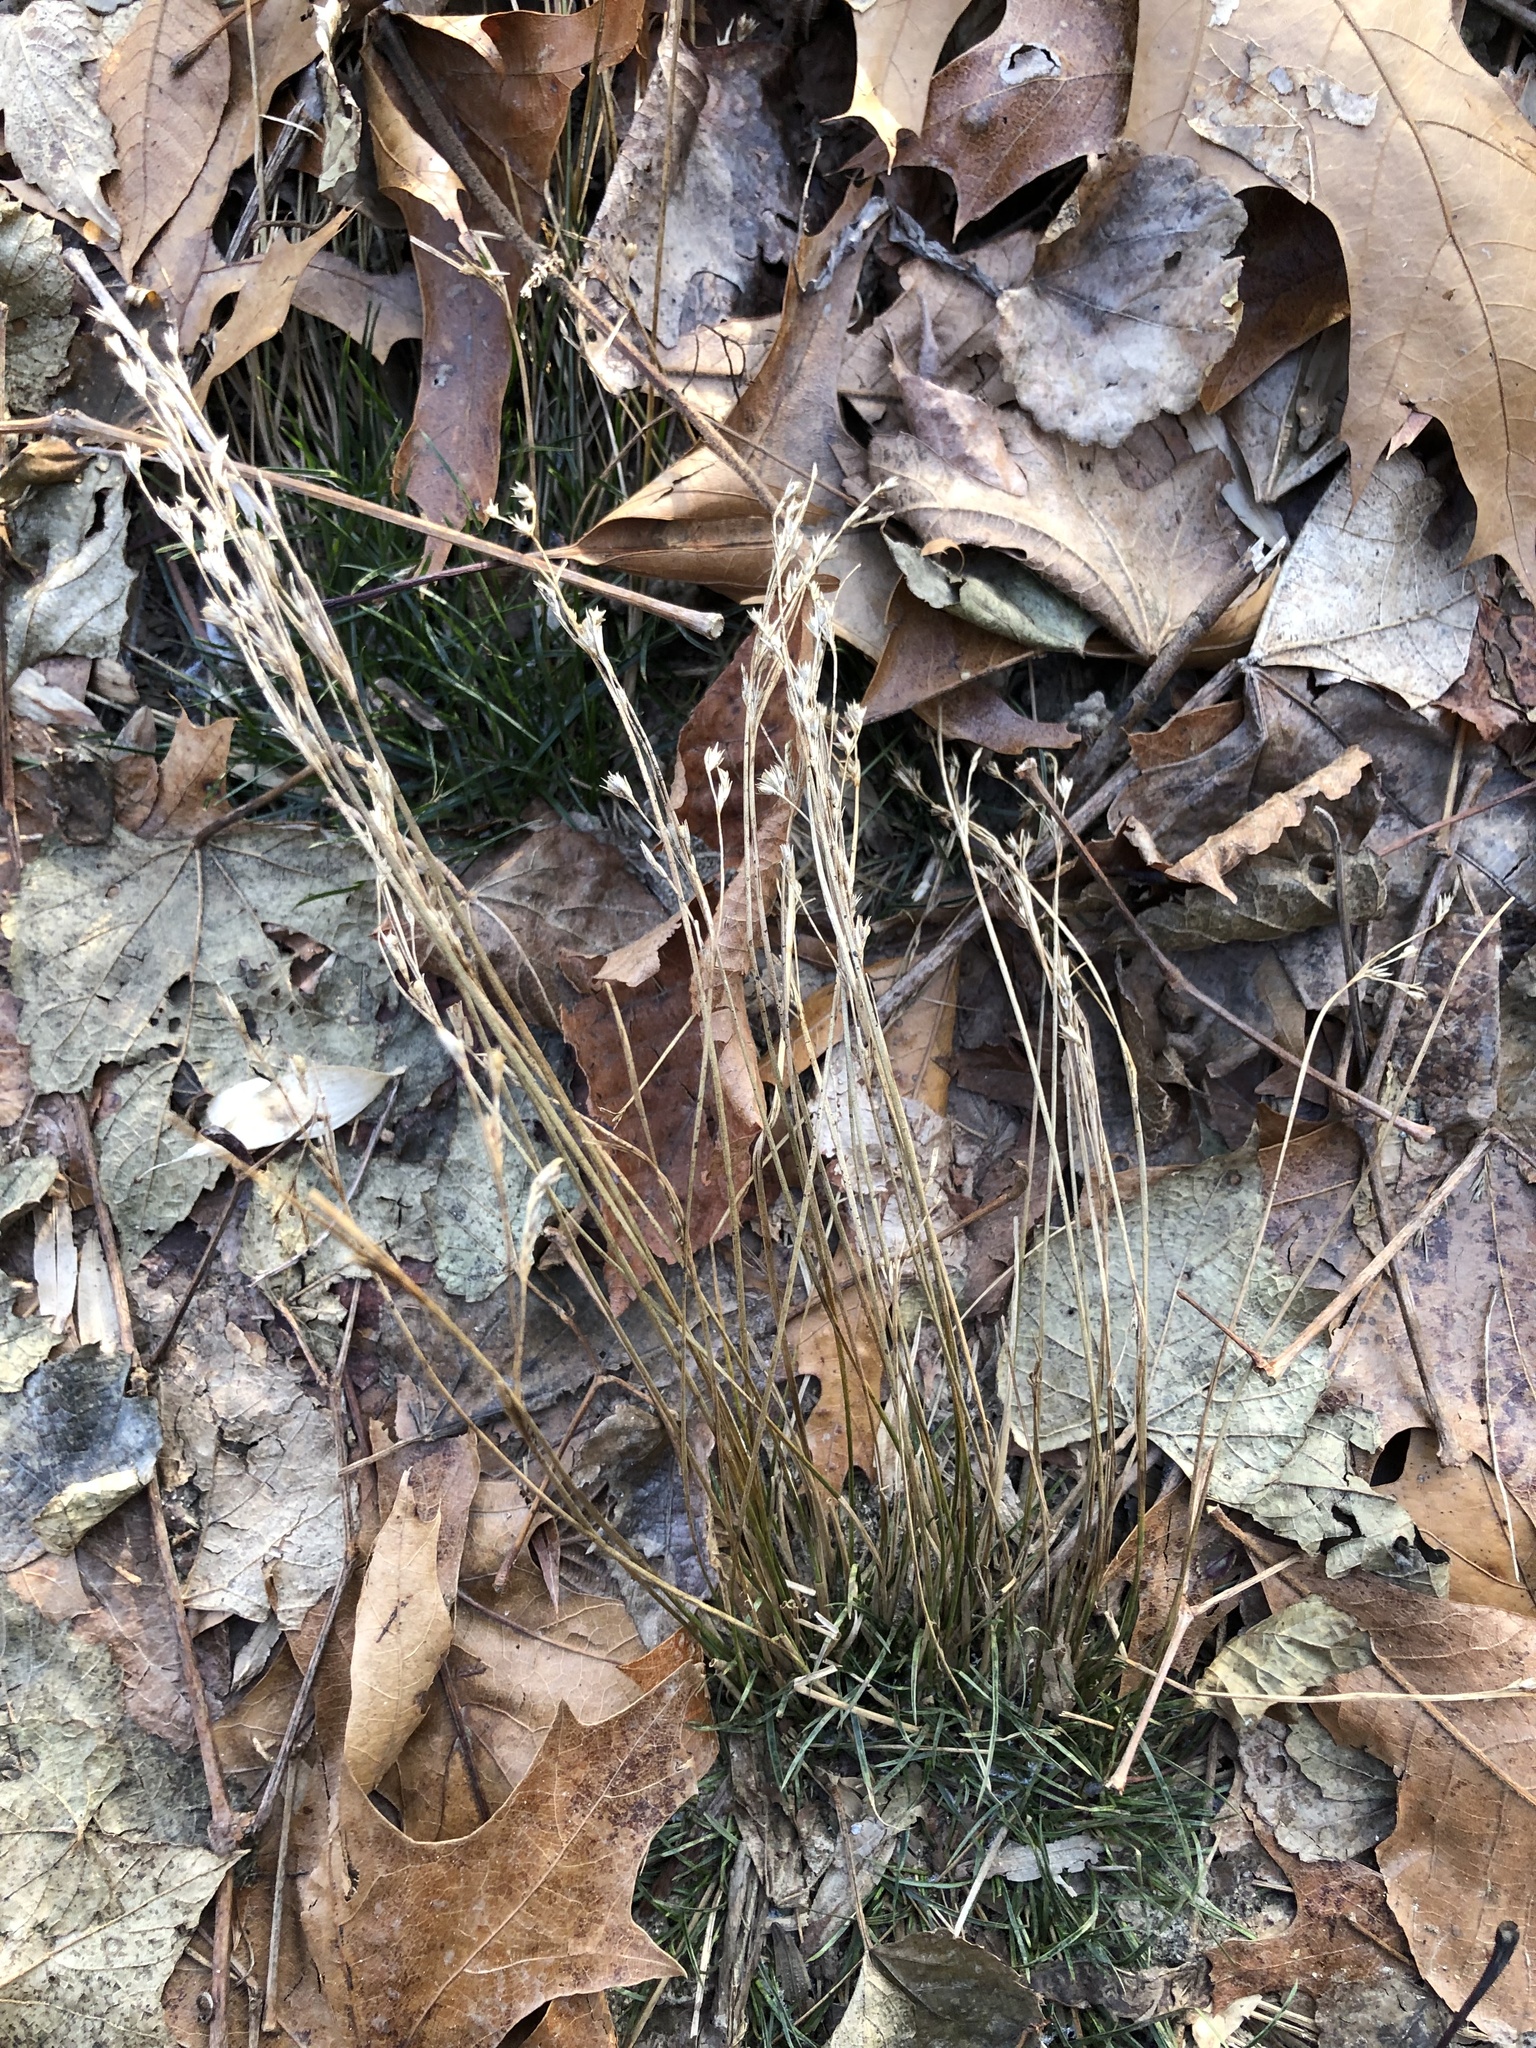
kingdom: Plantae
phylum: Tracheophyta
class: Liliopsida
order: Poales
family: Juncaceae
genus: Juncus
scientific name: Juncus tenuis
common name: Slender rush
